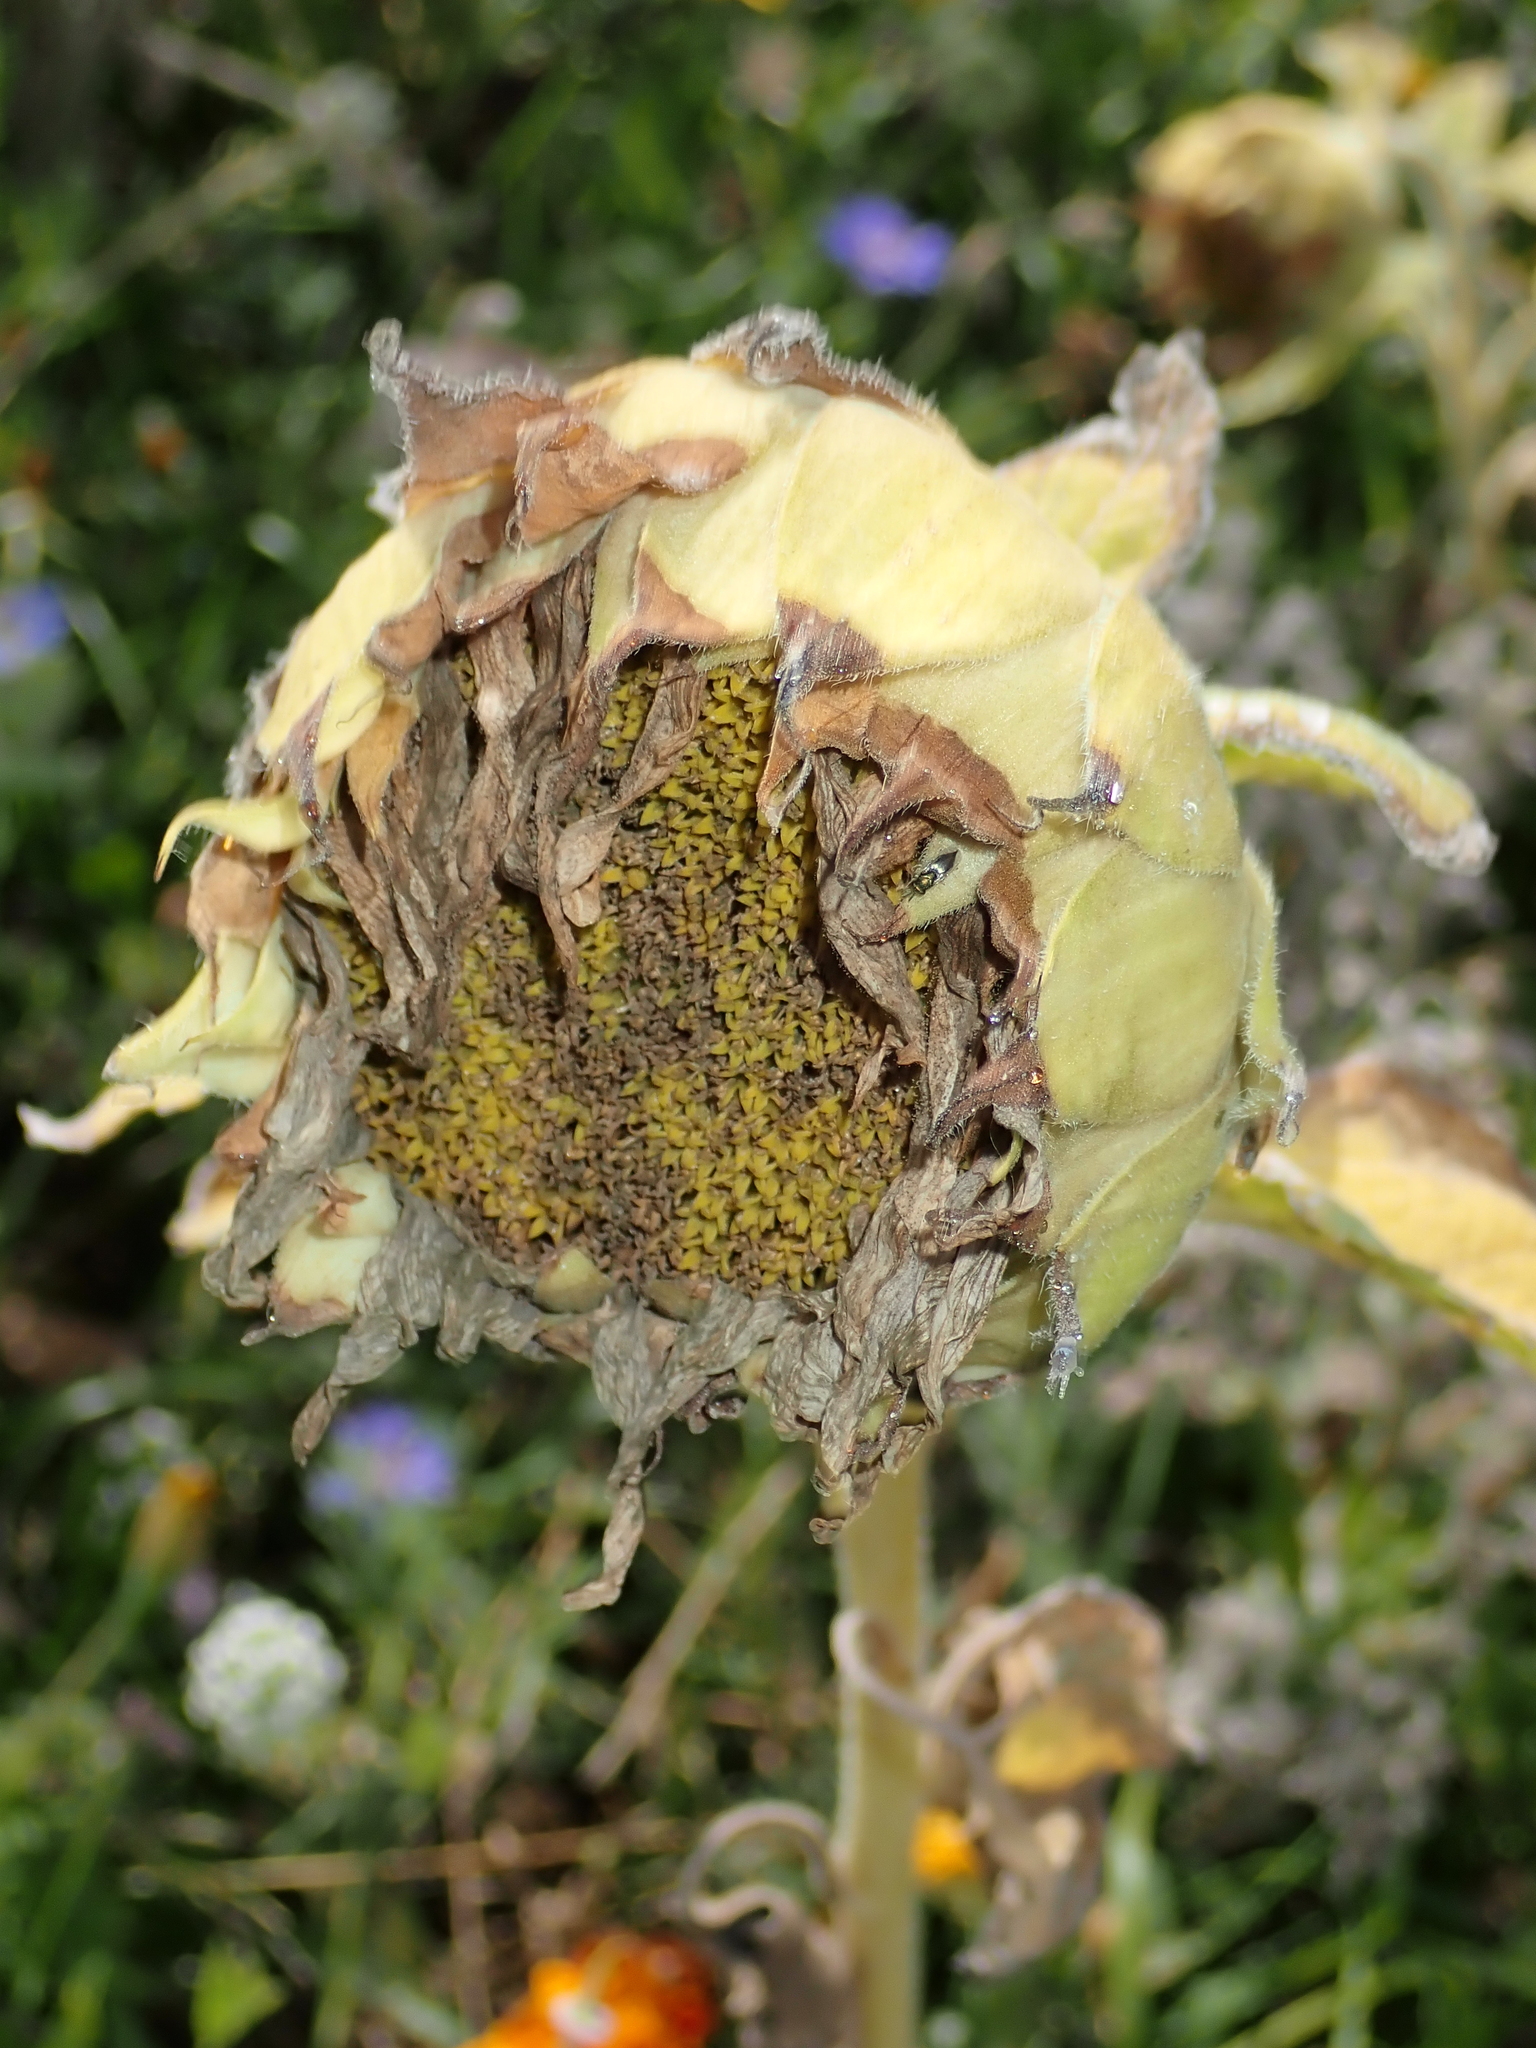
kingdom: Plantae
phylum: Tracheophyta
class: Magnoliopsida
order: Asterales
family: Asteraceae
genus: Helianthus
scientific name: Helianthus annuus
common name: Sunflower
